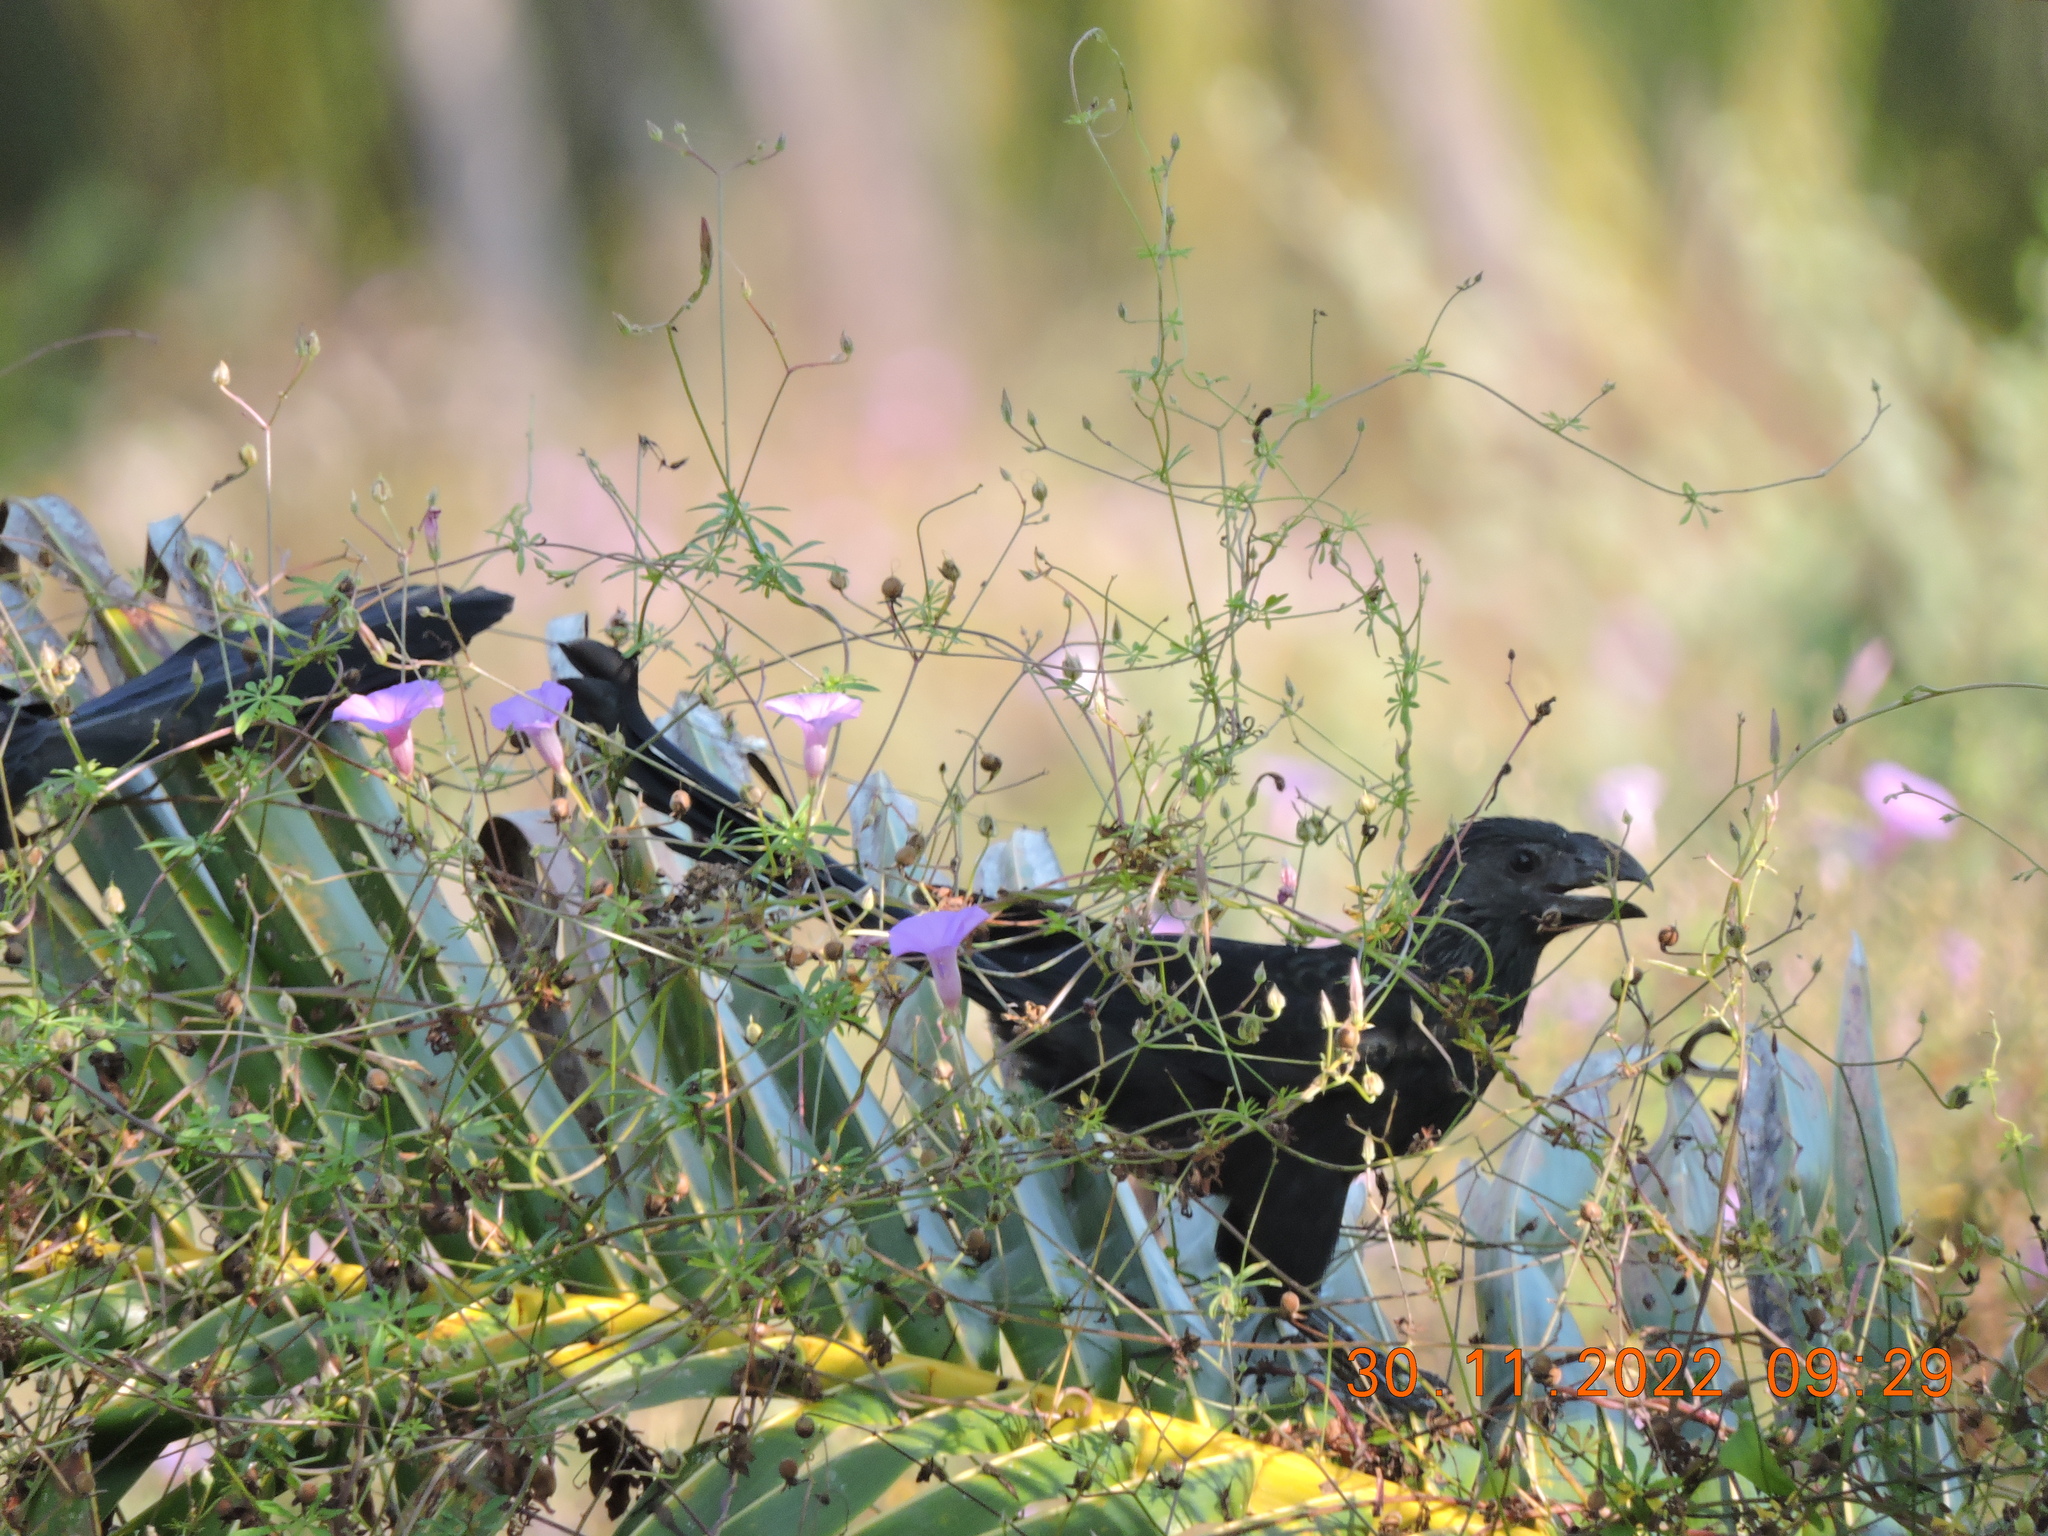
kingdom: Animalia
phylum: Chordata
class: Aves
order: Cuculiformes
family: Cuculidae
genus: Crotophaga
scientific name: Crotophaga sulcirostris
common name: Groove-billed ani
